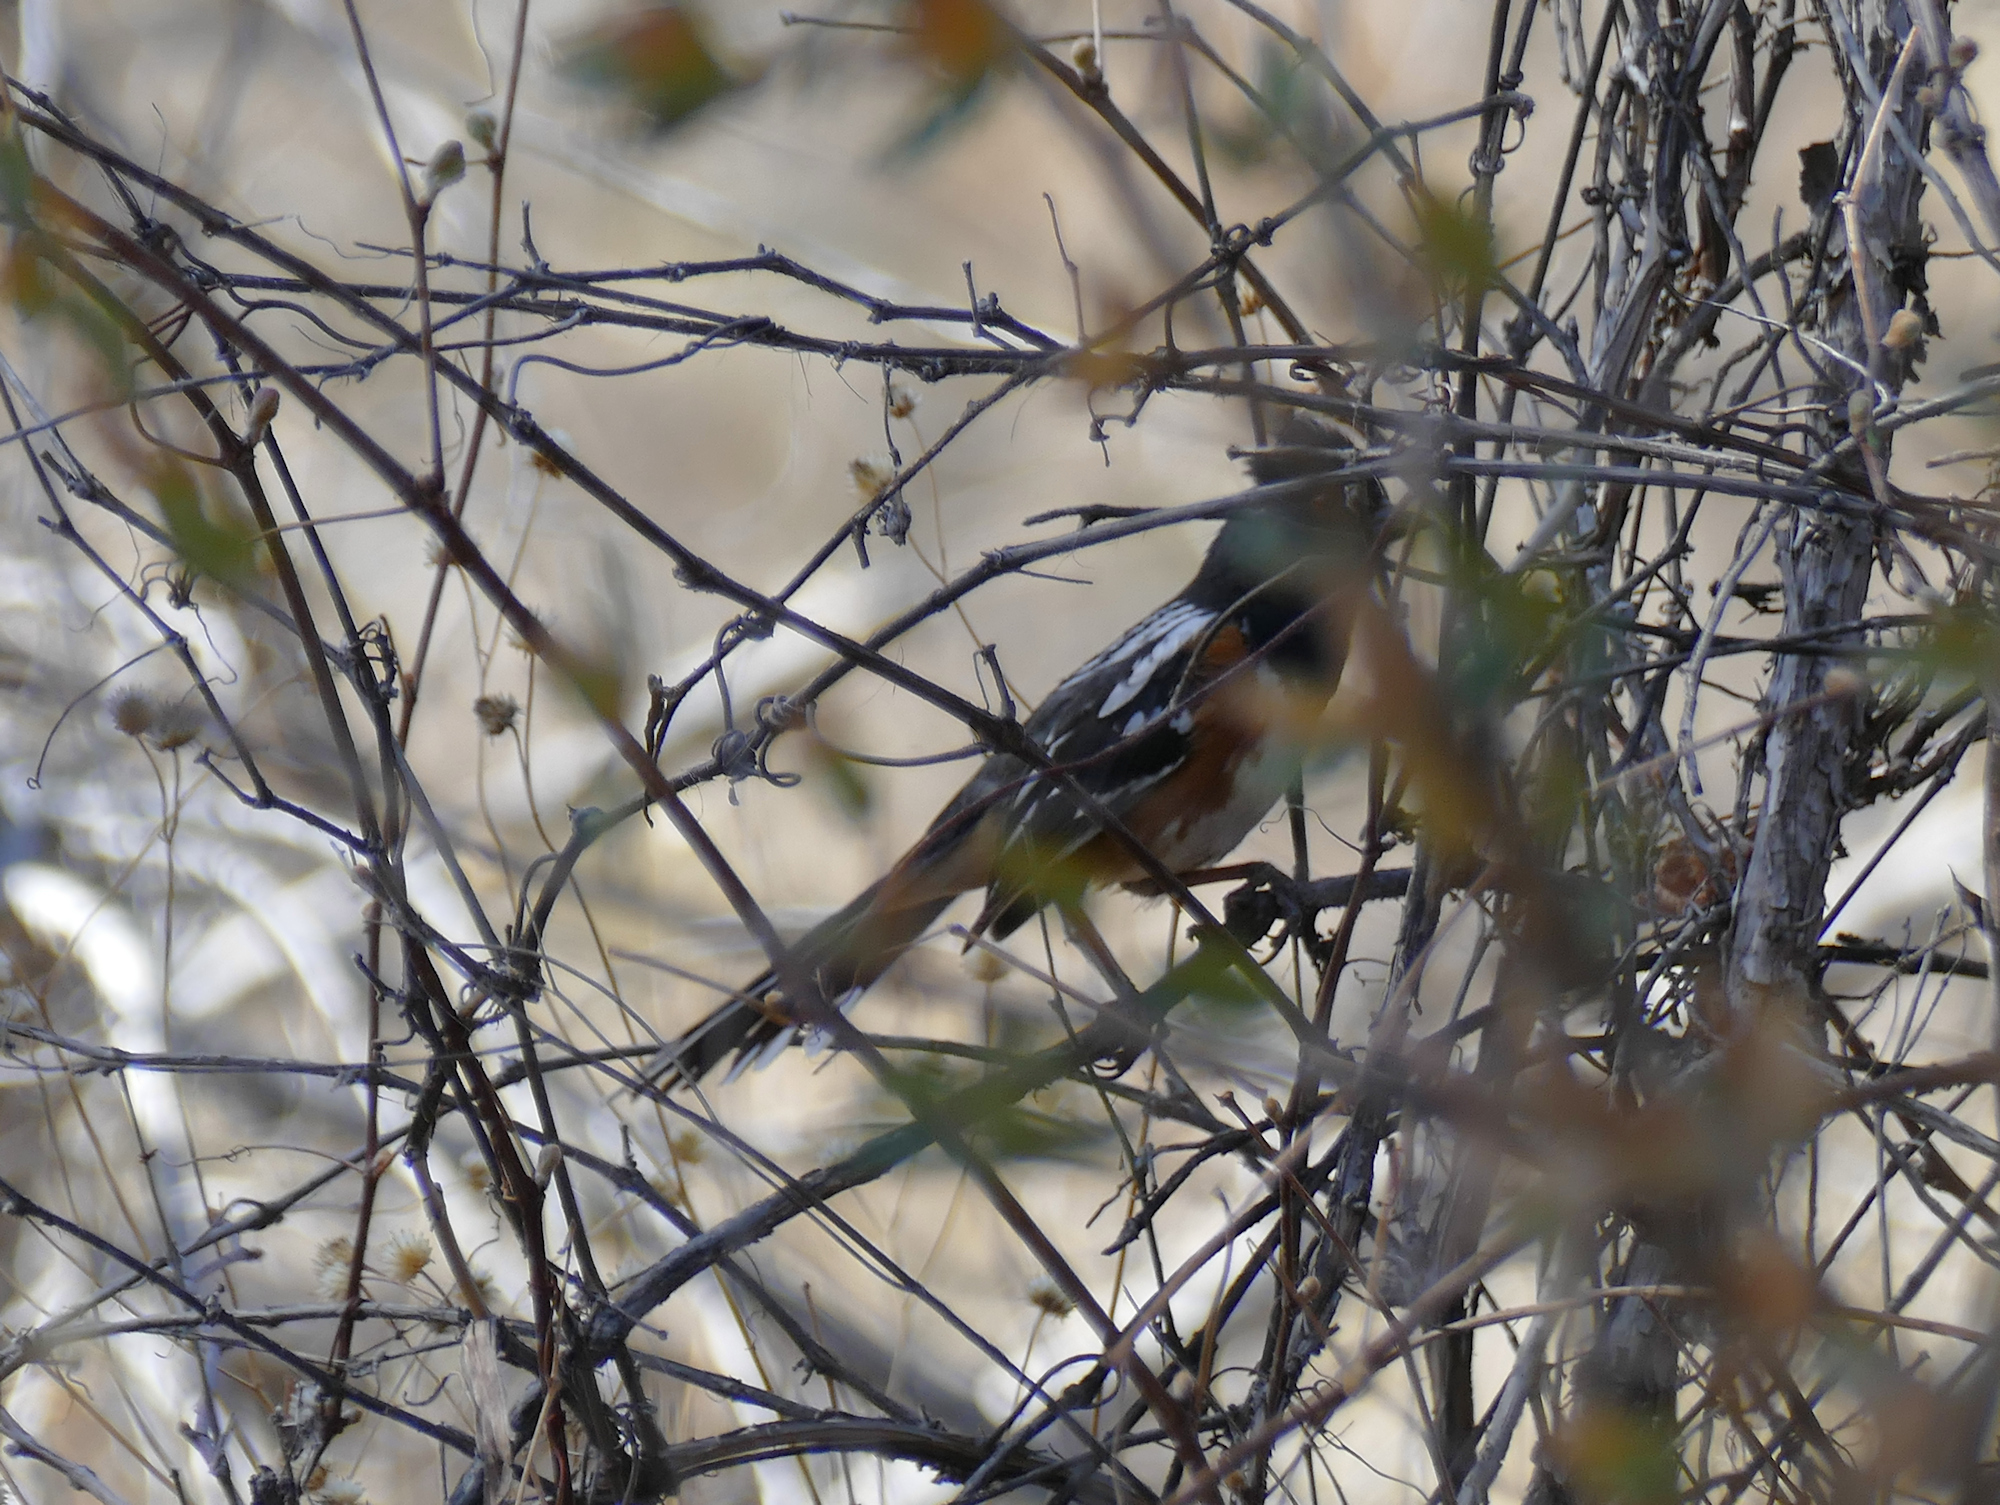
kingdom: Animalia
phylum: Chordata
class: Aves
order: Passeriformes
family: Passerellidae
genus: Pipilo
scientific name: Pipilo maculatus
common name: Spotted towhee
